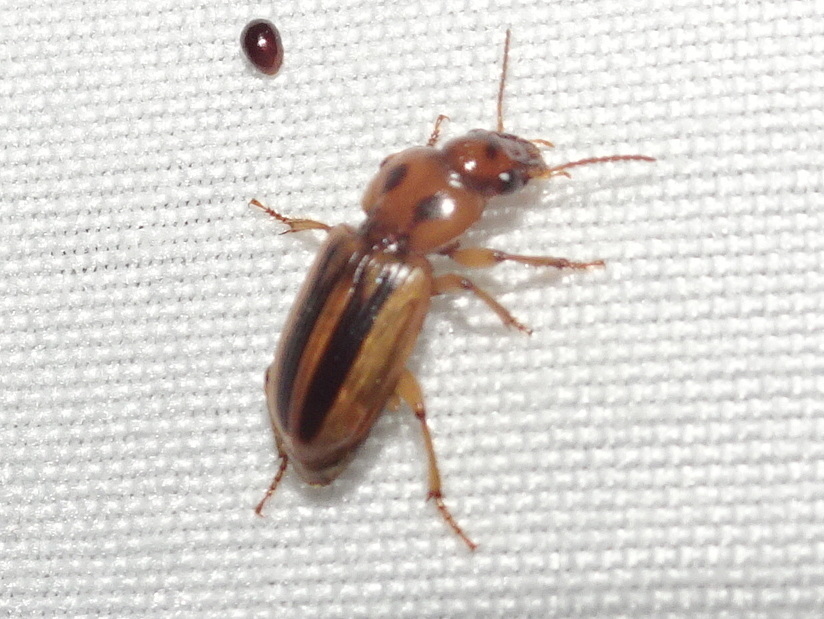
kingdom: Animalia
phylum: Arthropoda
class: Insecta
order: Coleoptera
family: Carabidae
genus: Stenolophus
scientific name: Stenolophus lineola
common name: Lined stenolophus
